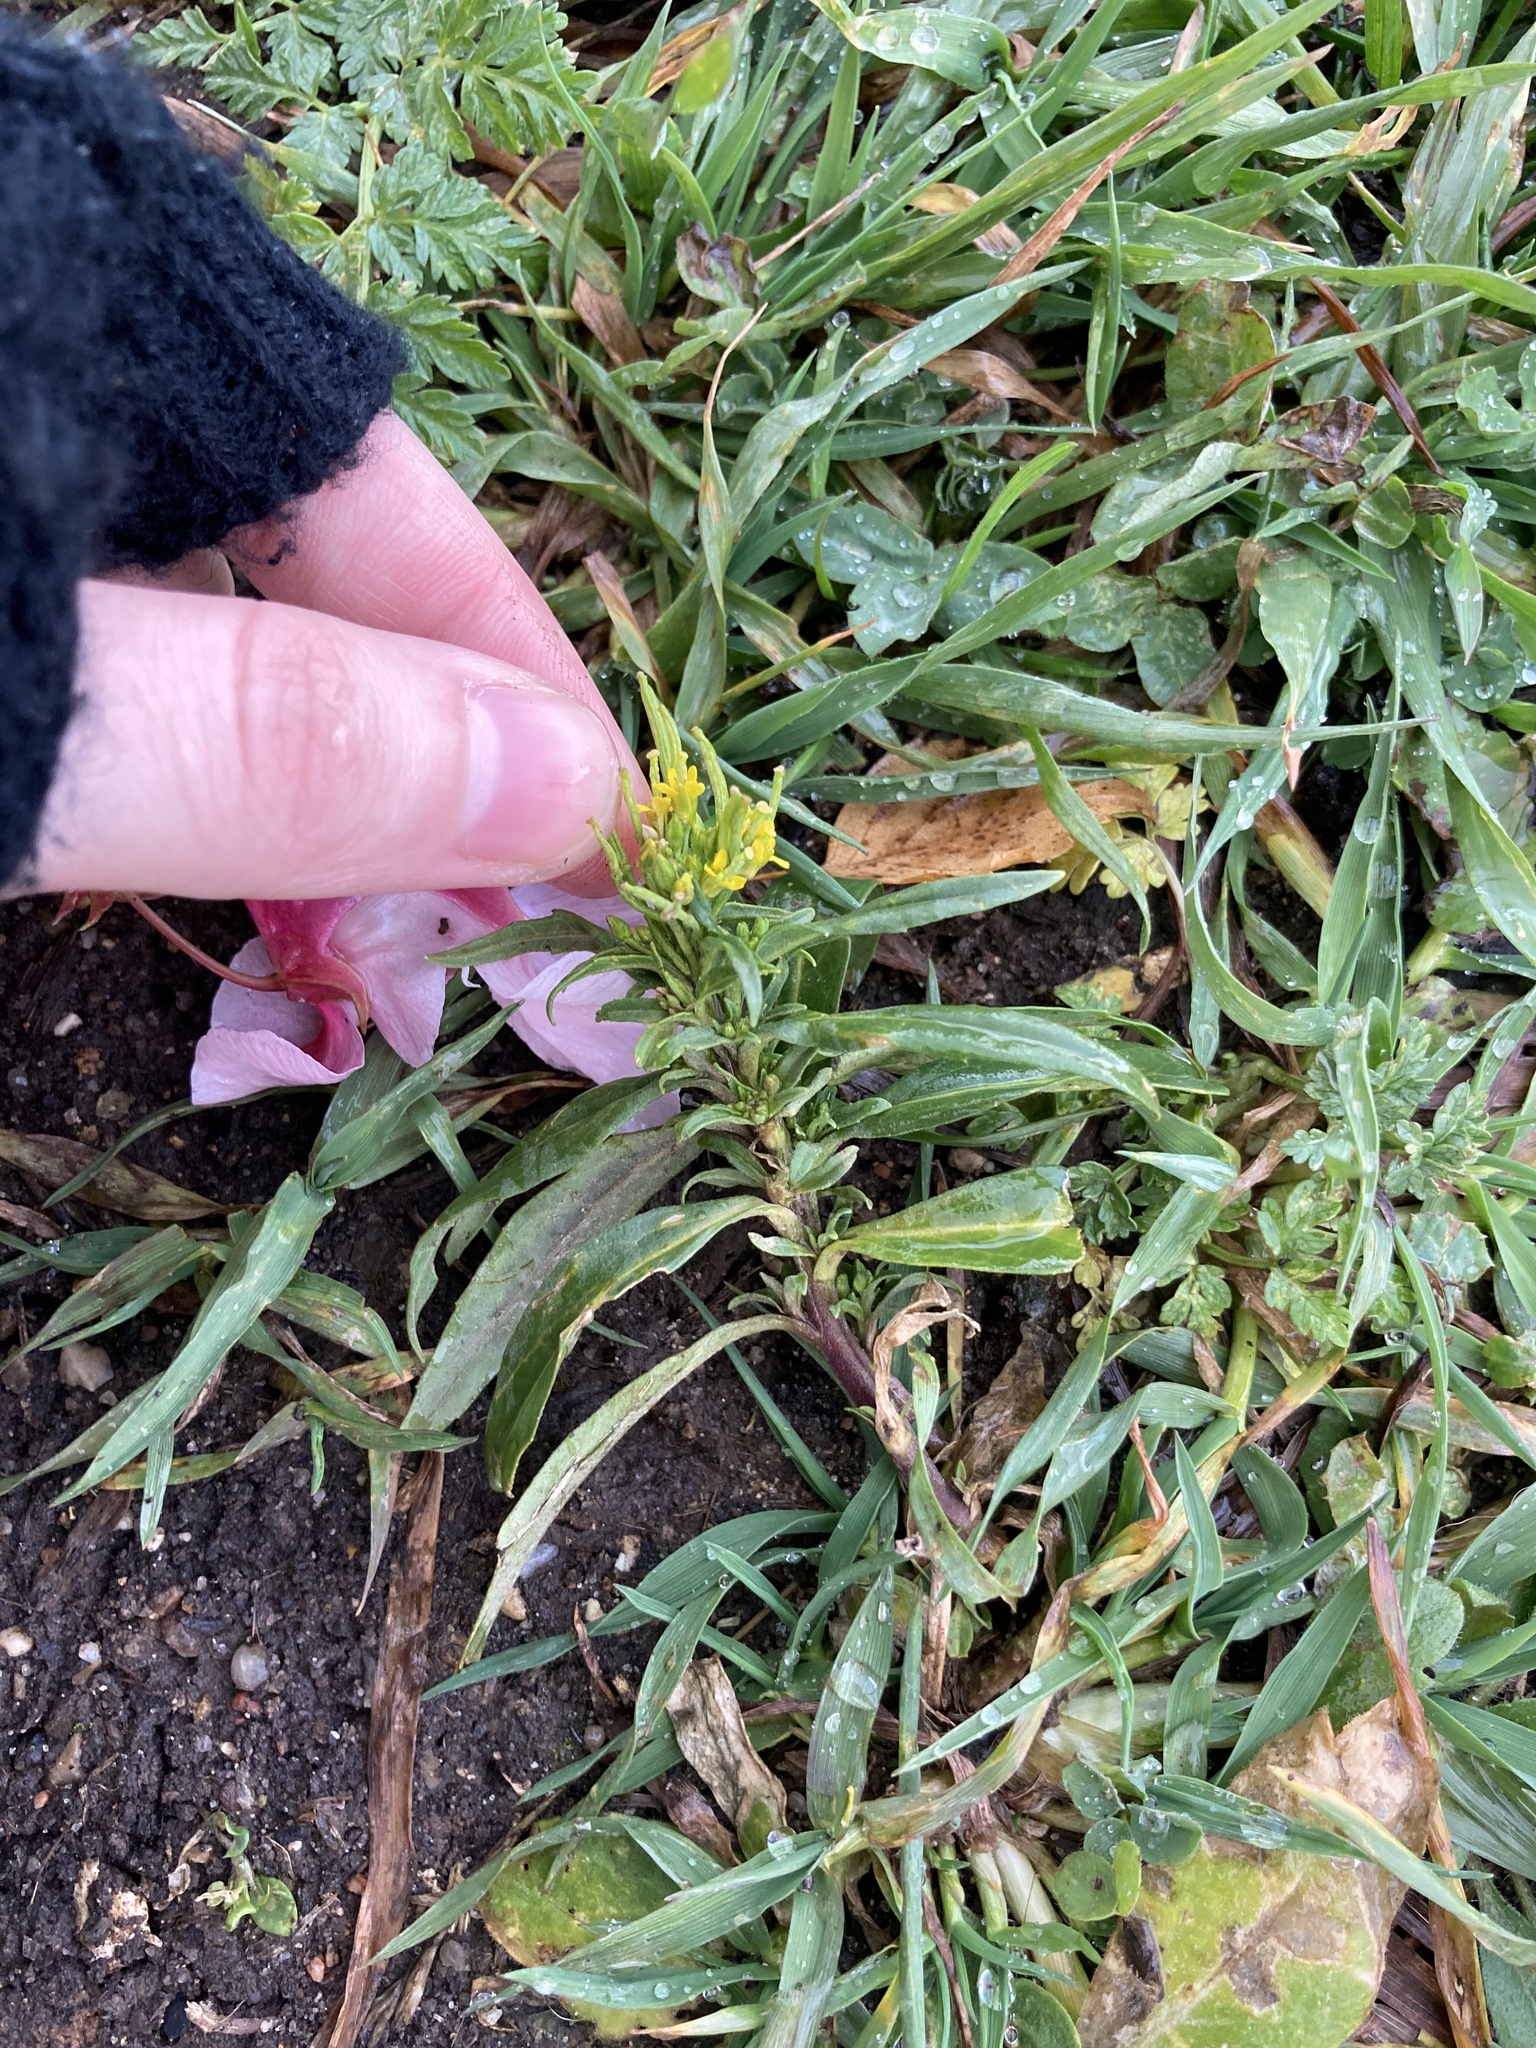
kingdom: Plantae
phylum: Tracheophyta
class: Magnoliopsida
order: Brassicales
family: Brassicaceae
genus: Erysimum
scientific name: Erysimum cheiranthoides
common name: Treacle mustard
